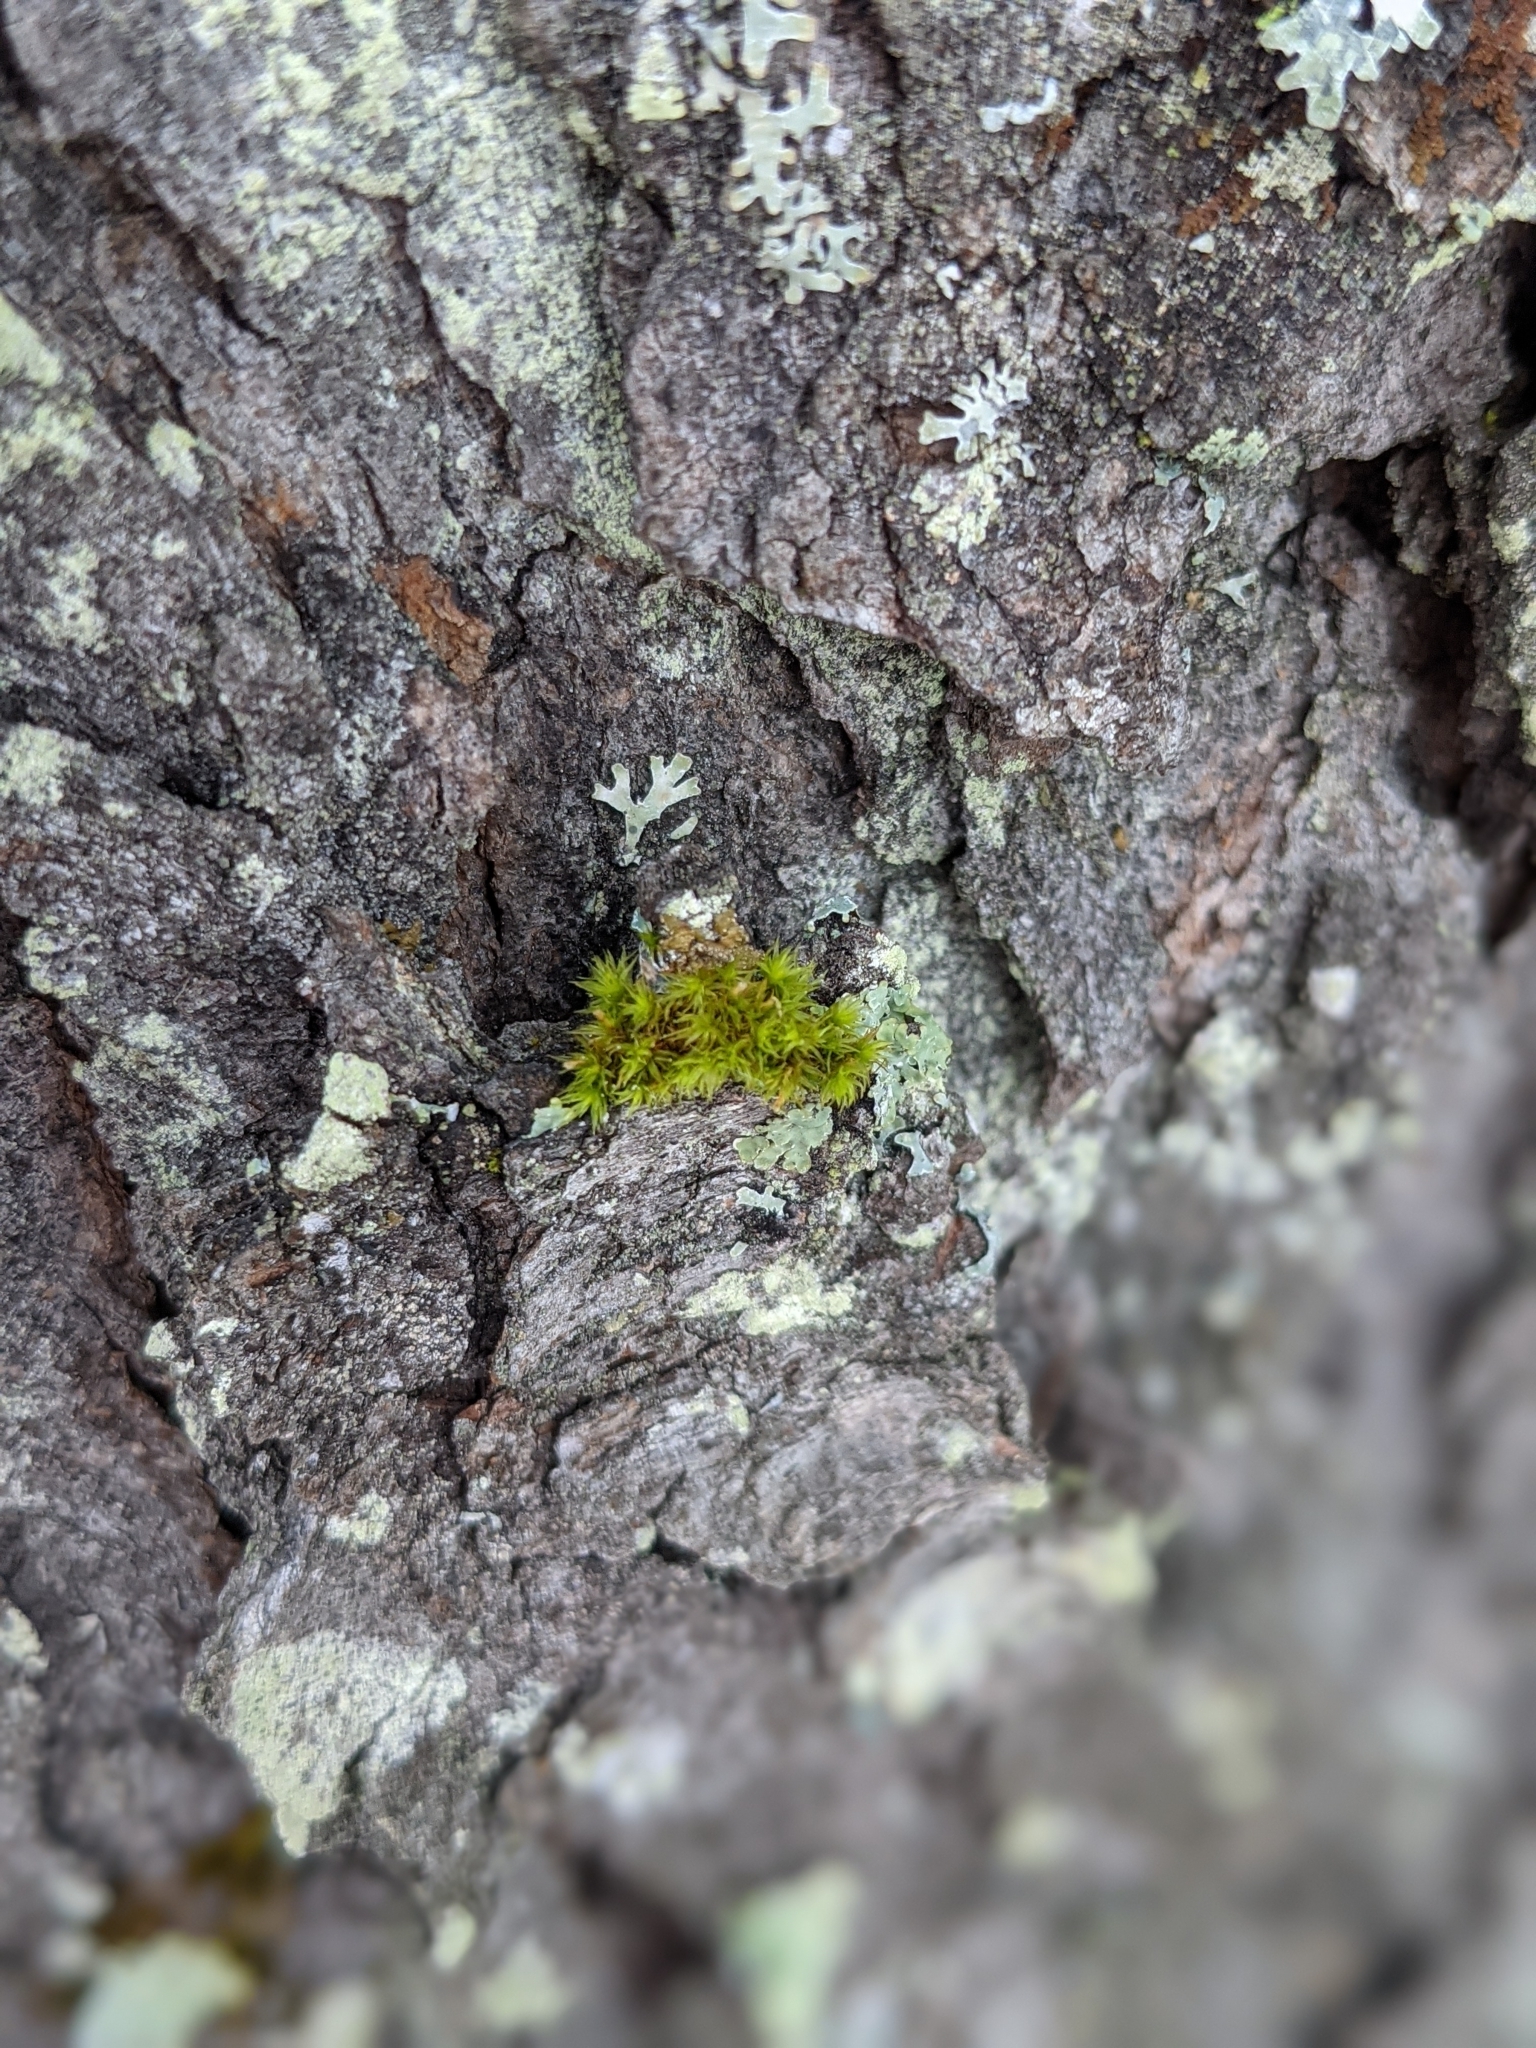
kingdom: Plantae
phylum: Bryophyta
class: Bryopsida
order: Orthotrichales
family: Orthotrichaceae
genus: Ulota
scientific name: Ulota crispa
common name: Crisped pincushion moss
